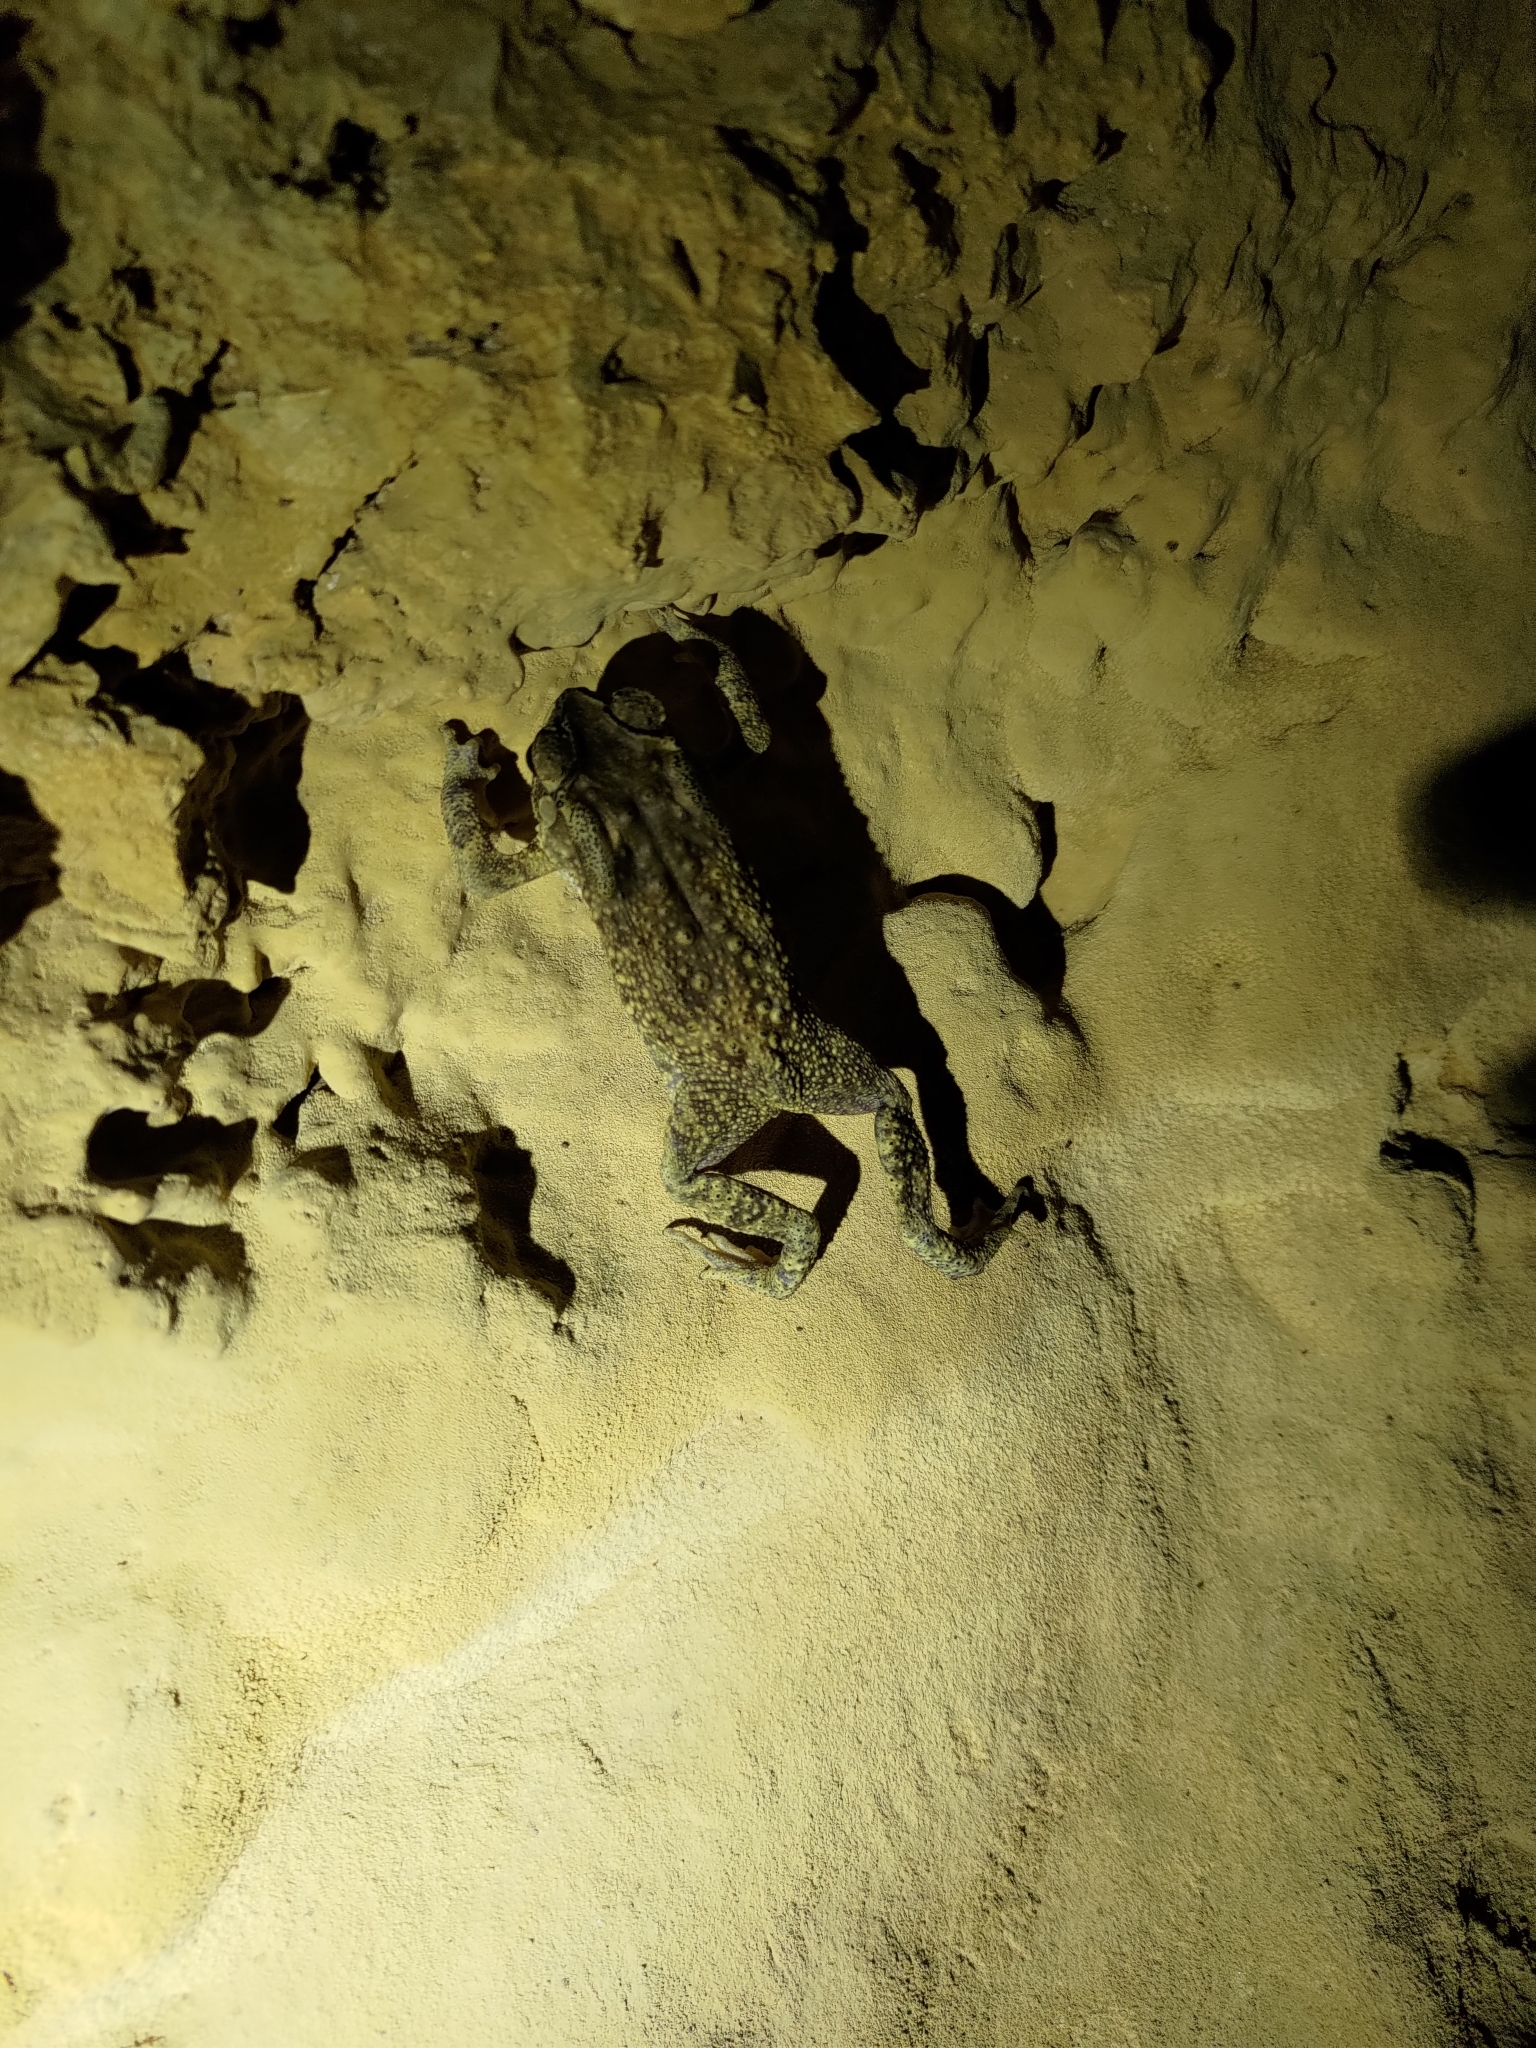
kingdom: Animalia
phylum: Chordata
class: Amphibia
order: Anura
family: Bufonidae
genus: Duttaphrynus
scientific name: Duttaphrynus melanostictus
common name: Common sunda toad
